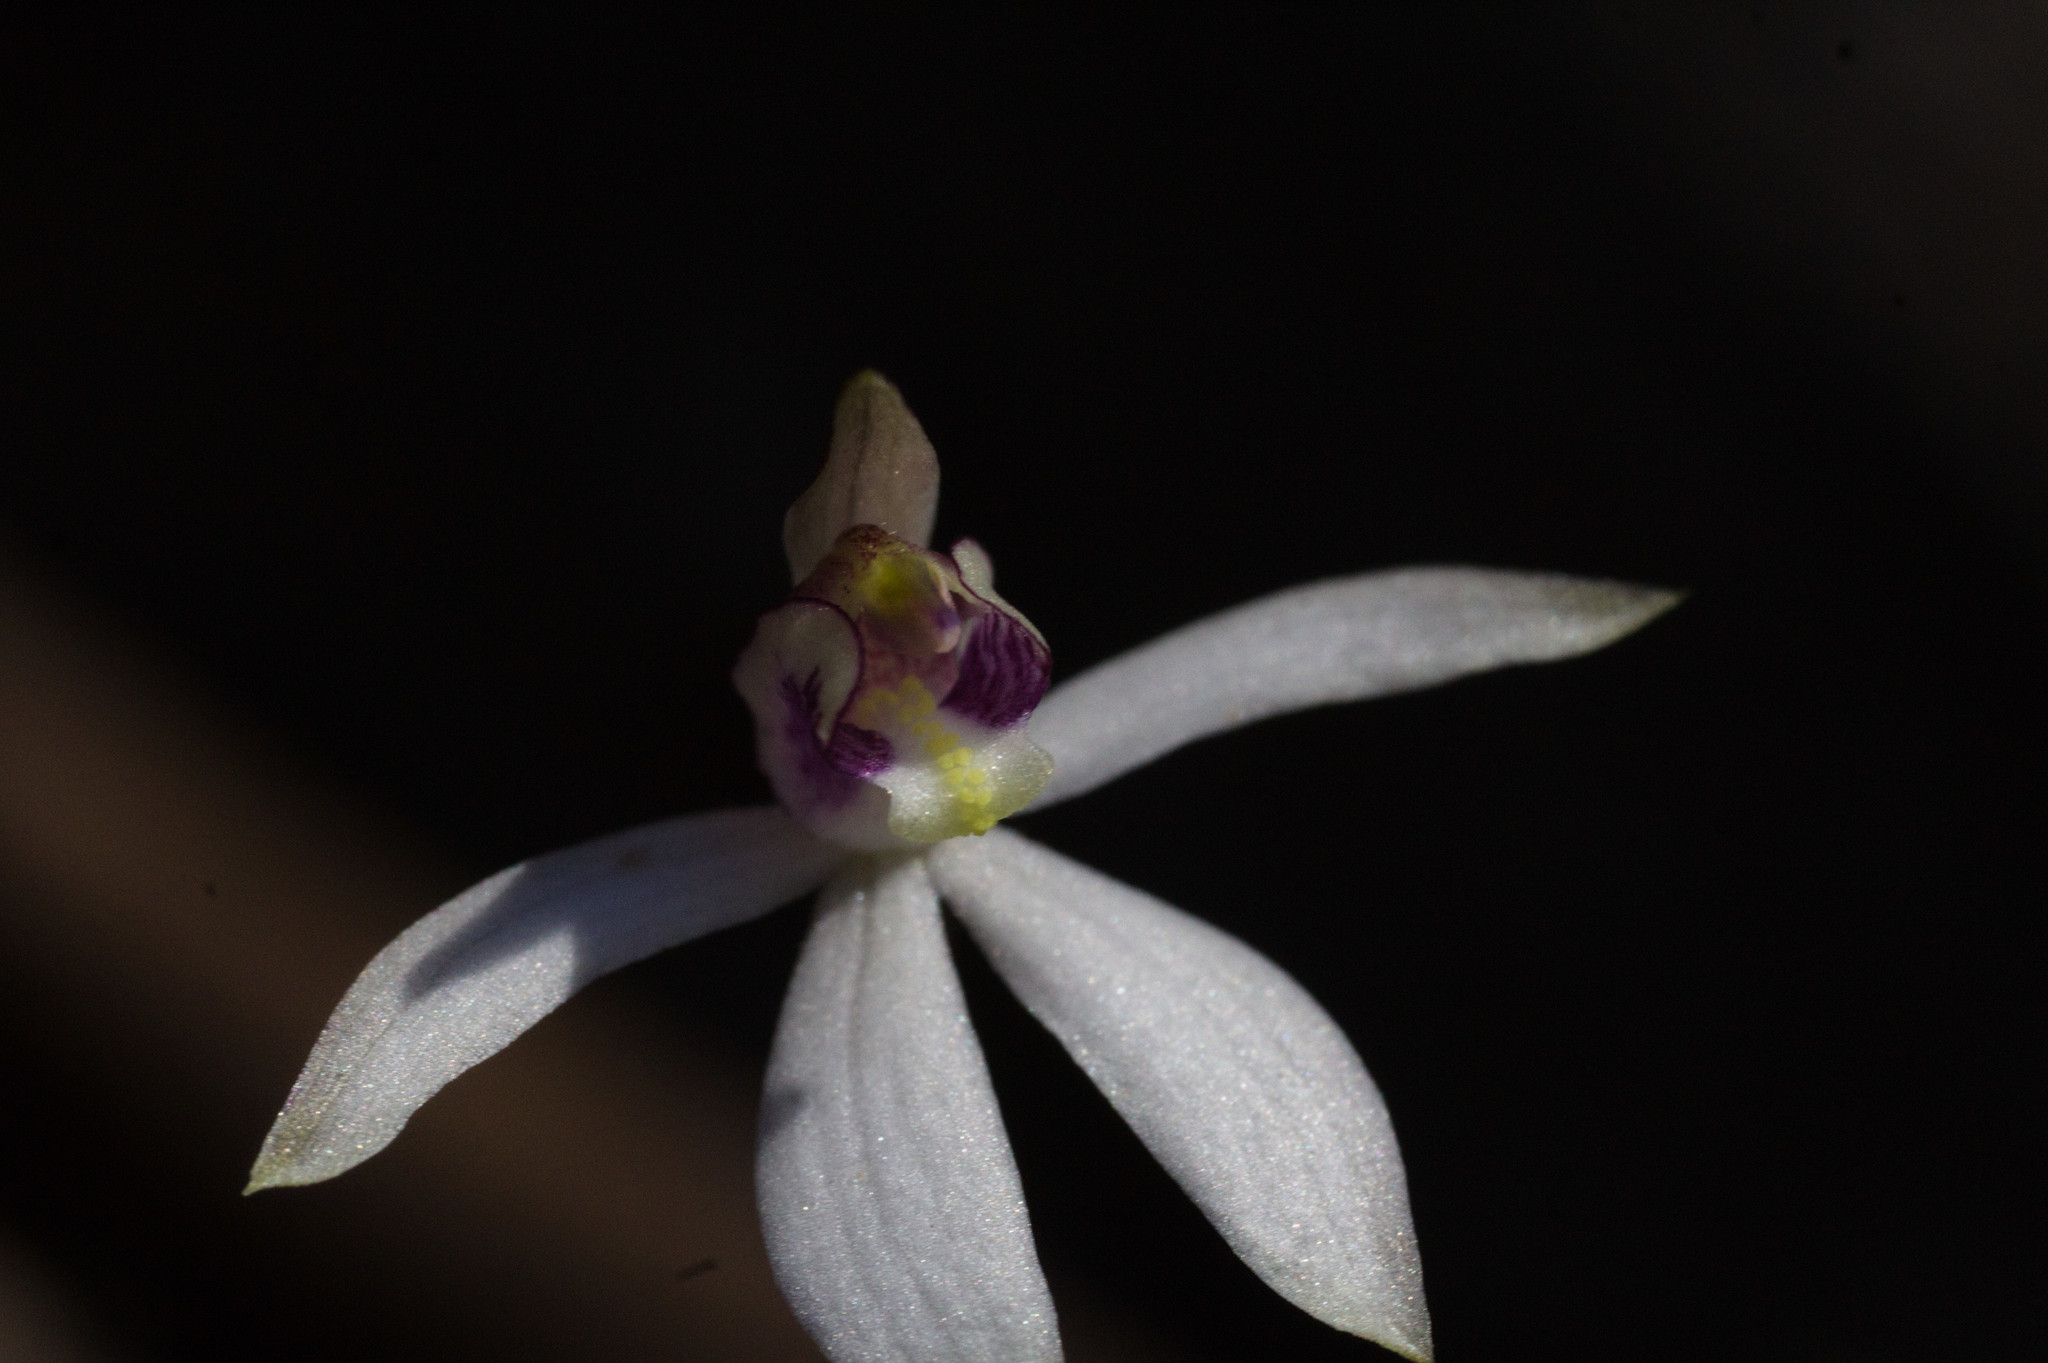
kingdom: Plantae
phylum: Tracheophyta
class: Liliopsida
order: Asparagales
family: Orchidaceae
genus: Caladenia
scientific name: Caladenia saccharata
